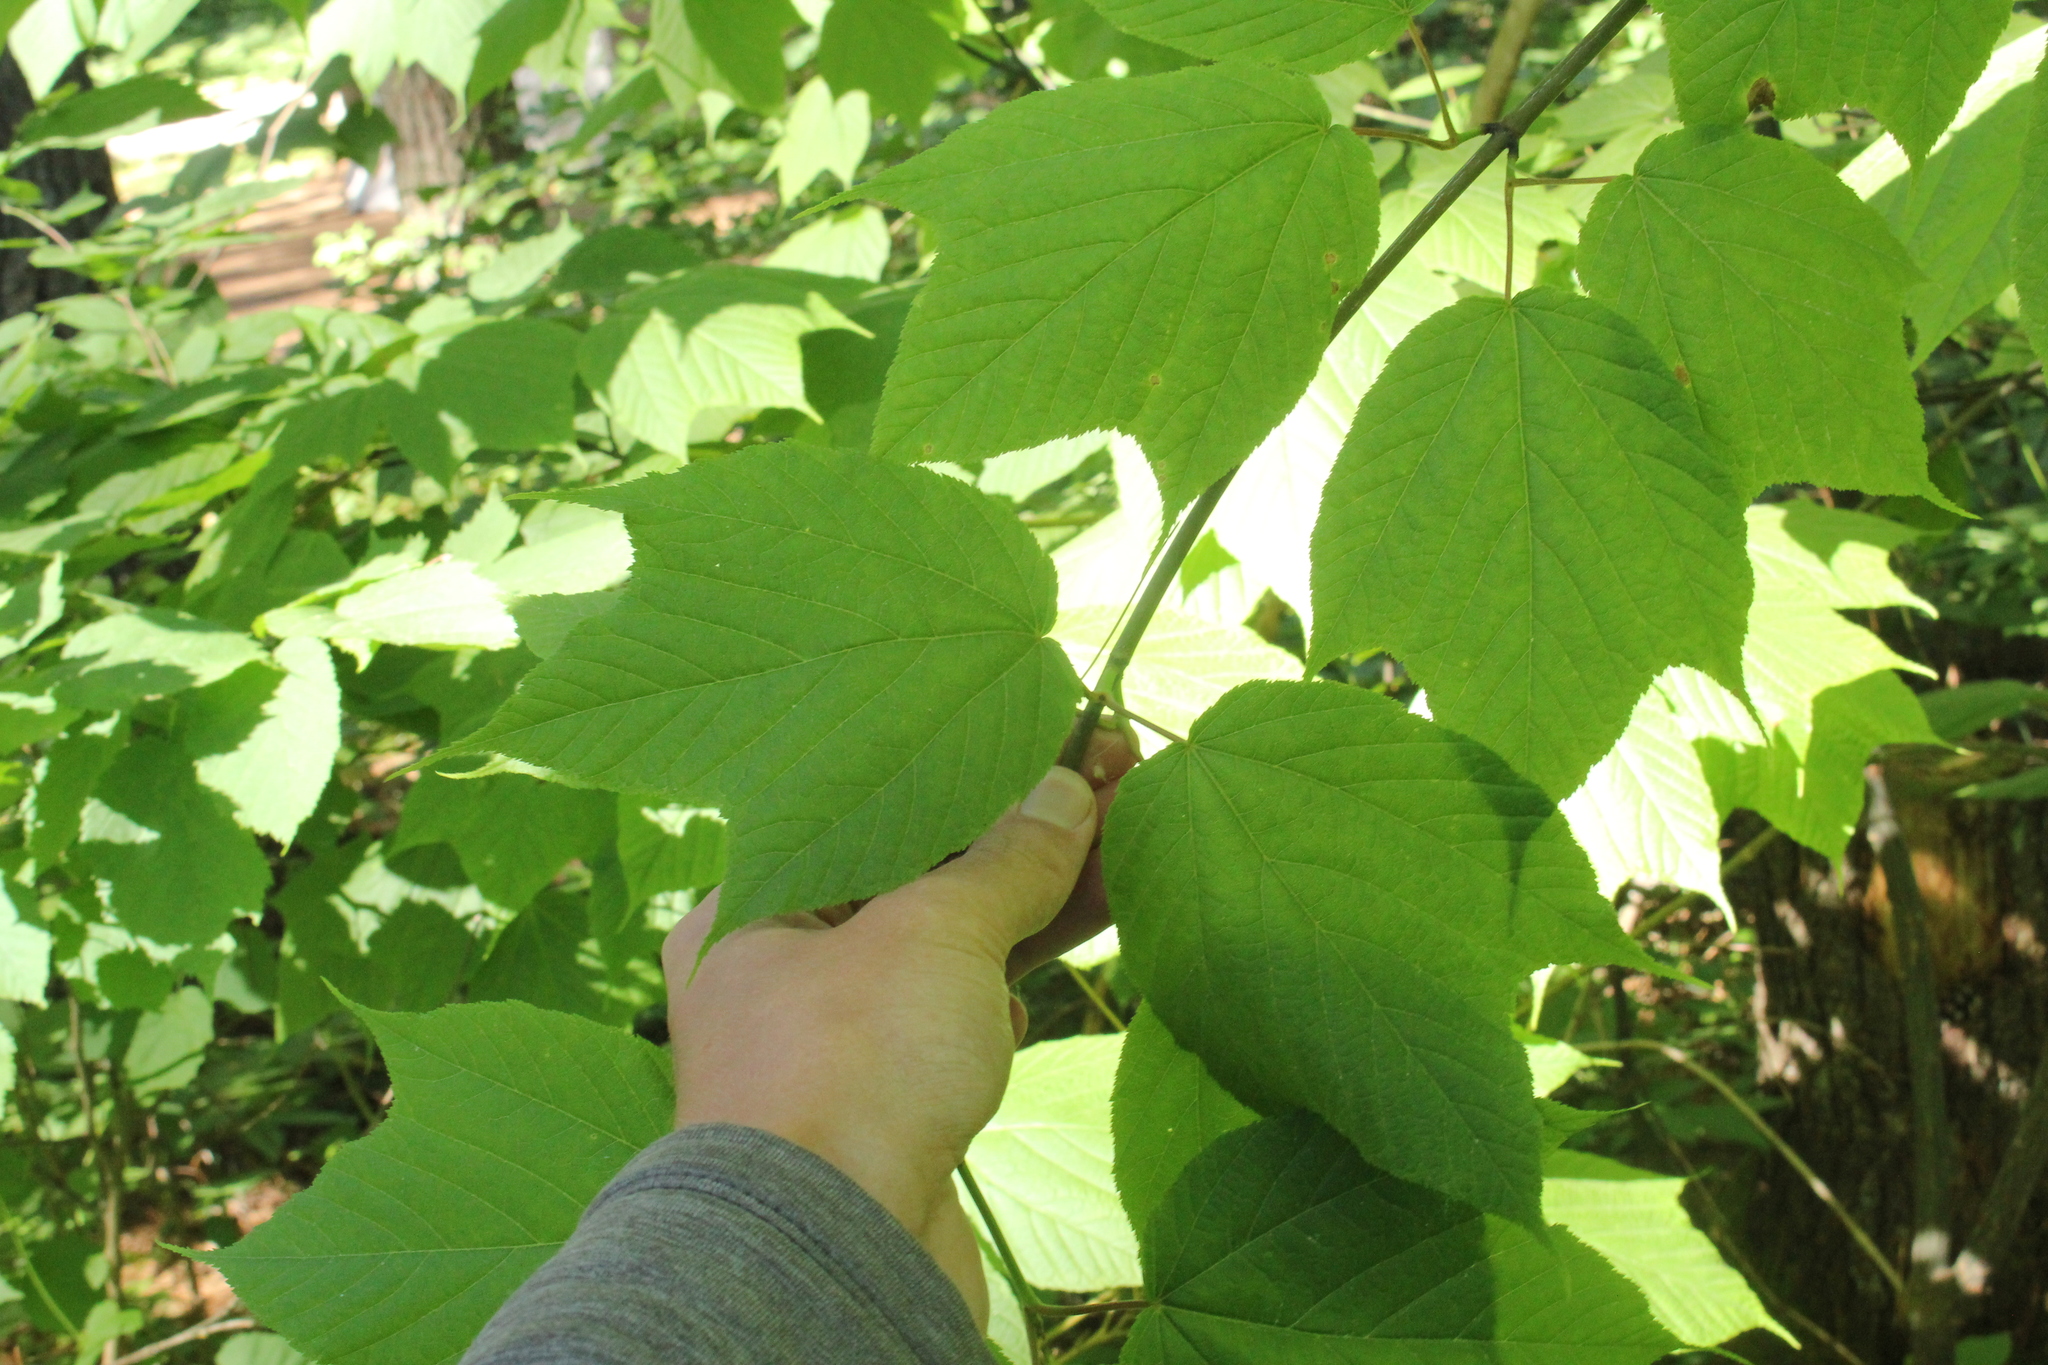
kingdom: Plantae
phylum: Tracheophyta
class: Magnoliopsida
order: Sapindales
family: Sapindaceae
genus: Acer
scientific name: Acer pensylvanicum
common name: Moosewood
